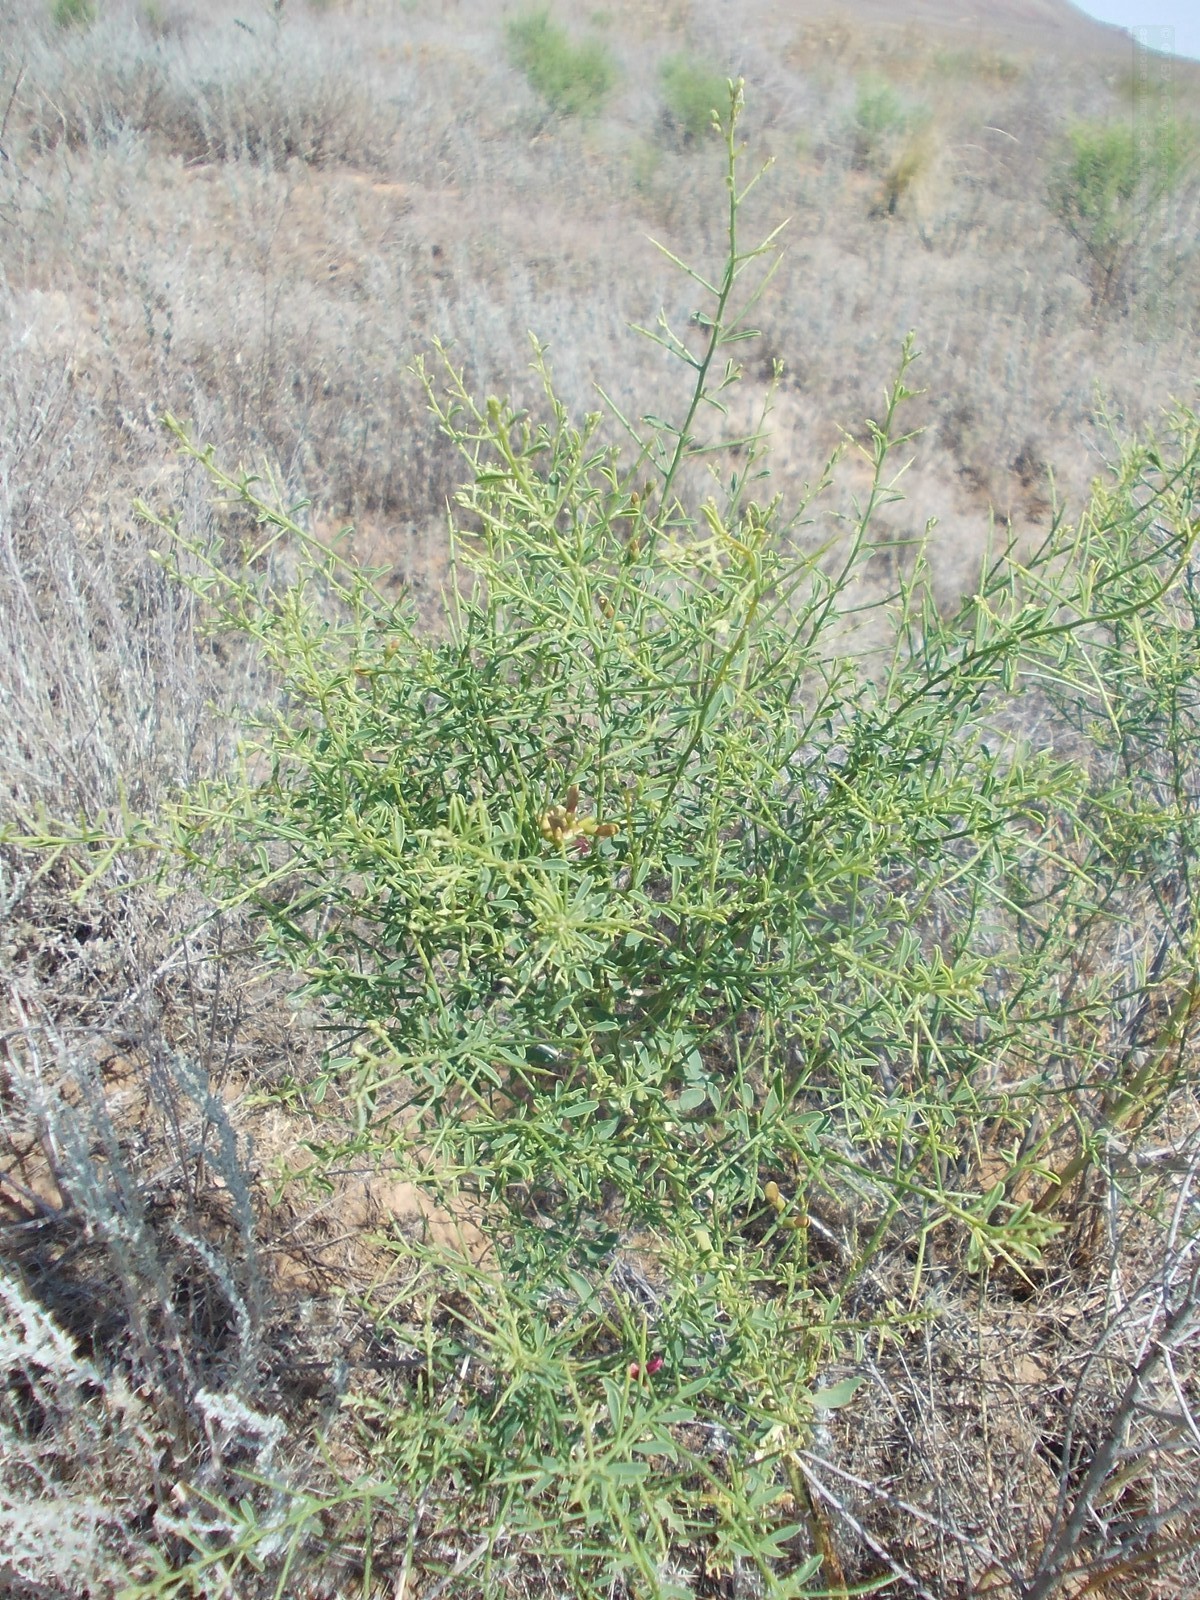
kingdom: Plantae
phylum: Tracheophyta
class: Magnoliopsida
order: Fabales
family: Fabaceae
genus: Alhagi
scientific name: Alhagi pseudalhagi
